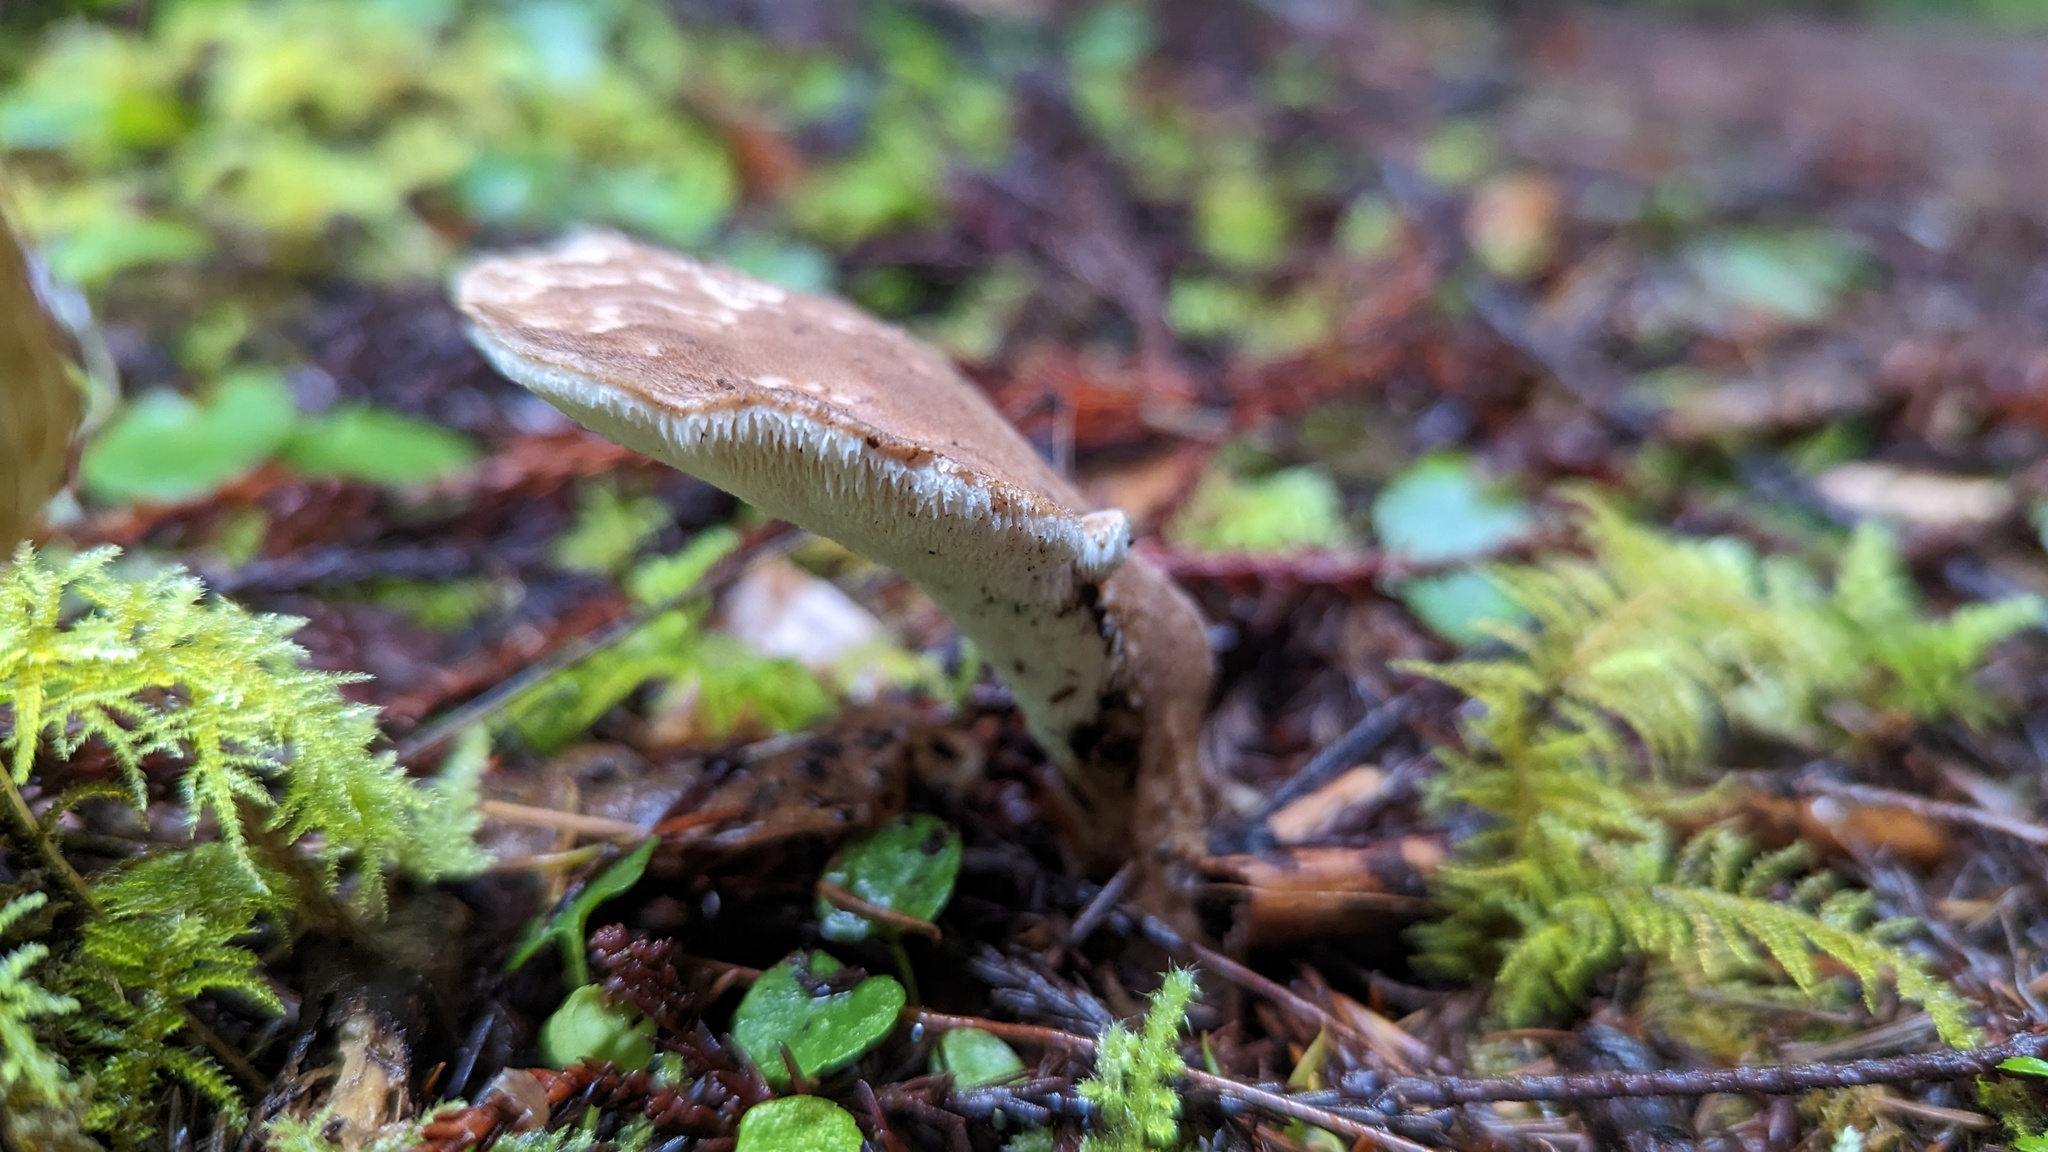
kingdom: Fungi
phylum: Basidiomycota
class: Agaricomycetes
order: Polyporales
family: Dacryobolaceae
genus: Jahnoporus
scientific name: Jahnoporus hirtus
